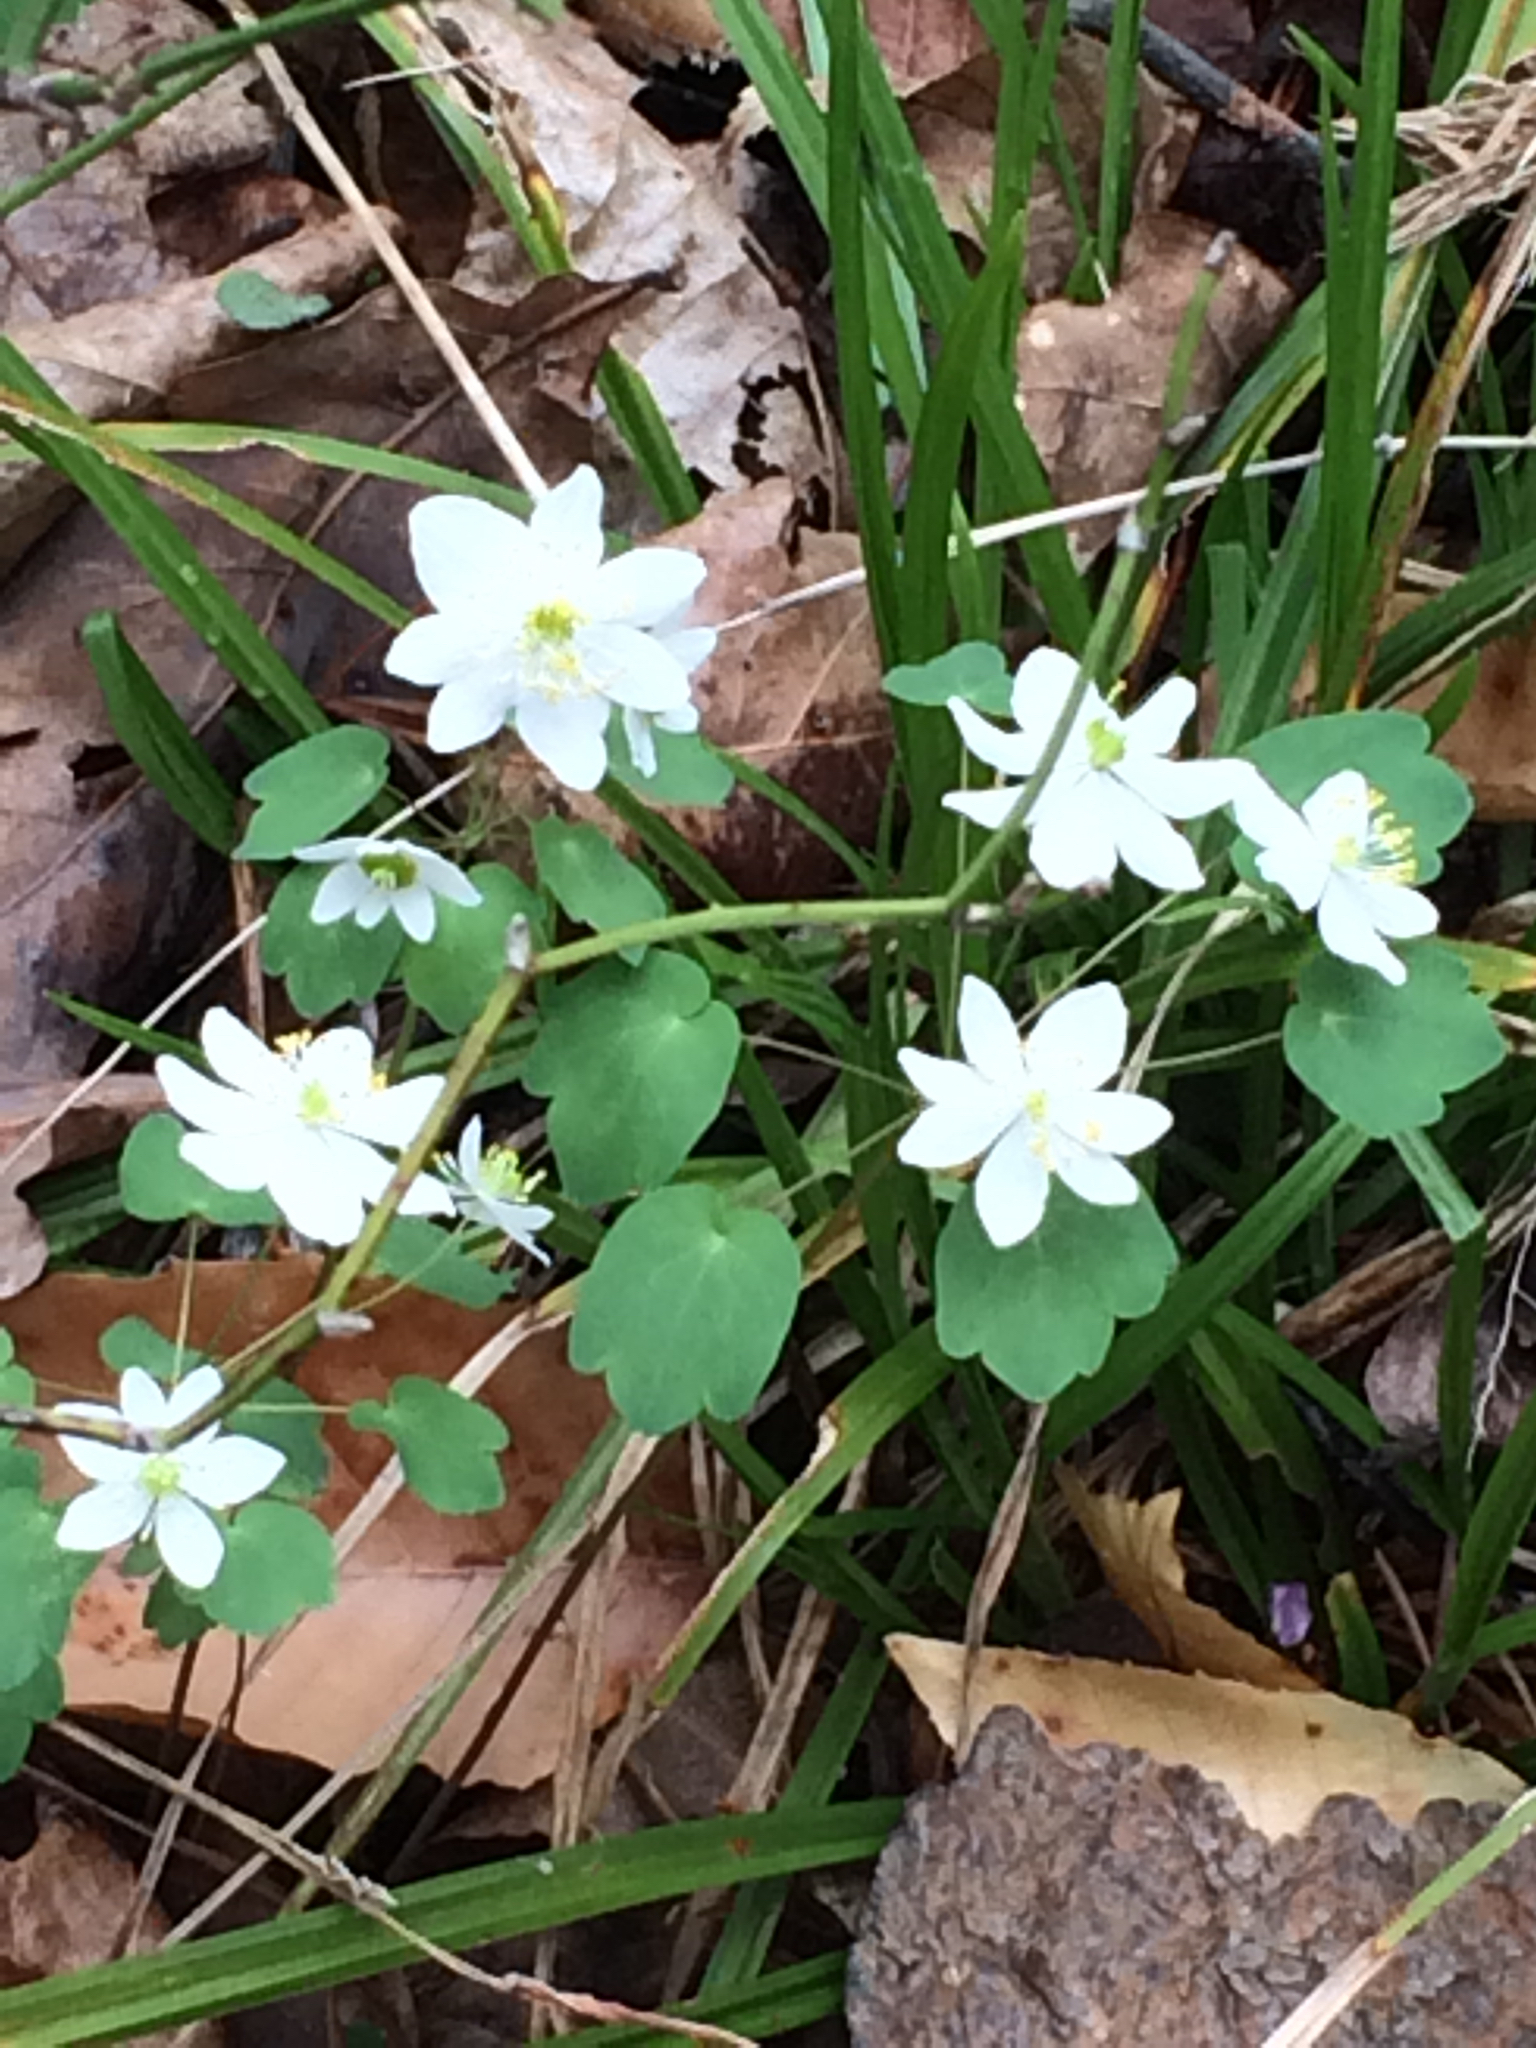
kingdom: Plantae
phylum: Tracheophyta
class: Magnoliopsida
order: Ranunculales
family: Ranunculaceae
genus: Thalictrum
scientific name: Thalictrum thalictroides
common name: Rue-anemone
